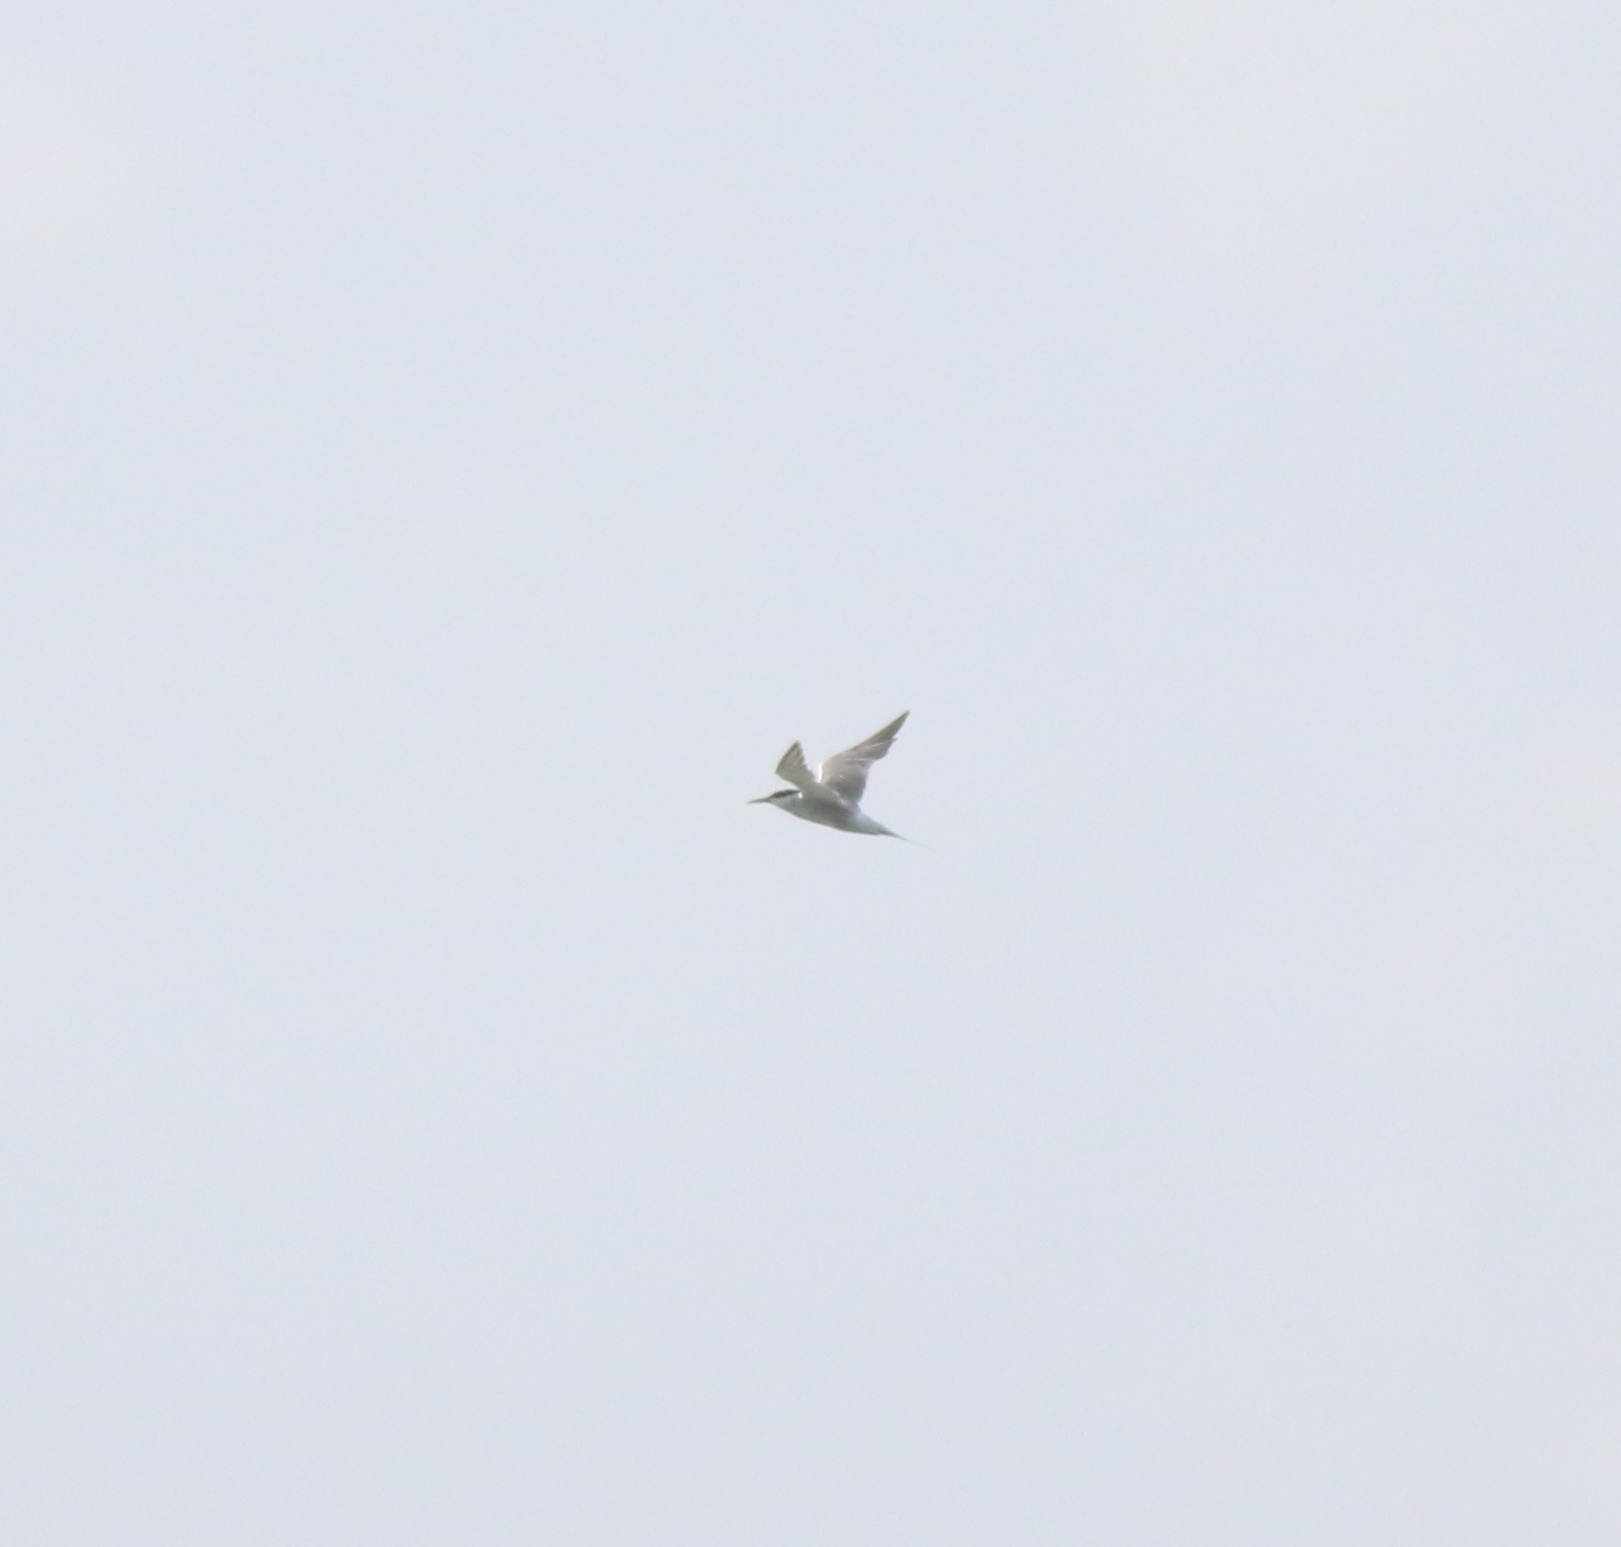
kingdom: Animalia
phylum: Chordata
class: Aves
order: Charadriiformes
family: Laridae
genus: Sterna
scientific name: Sterna hirundo
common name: Common tern
